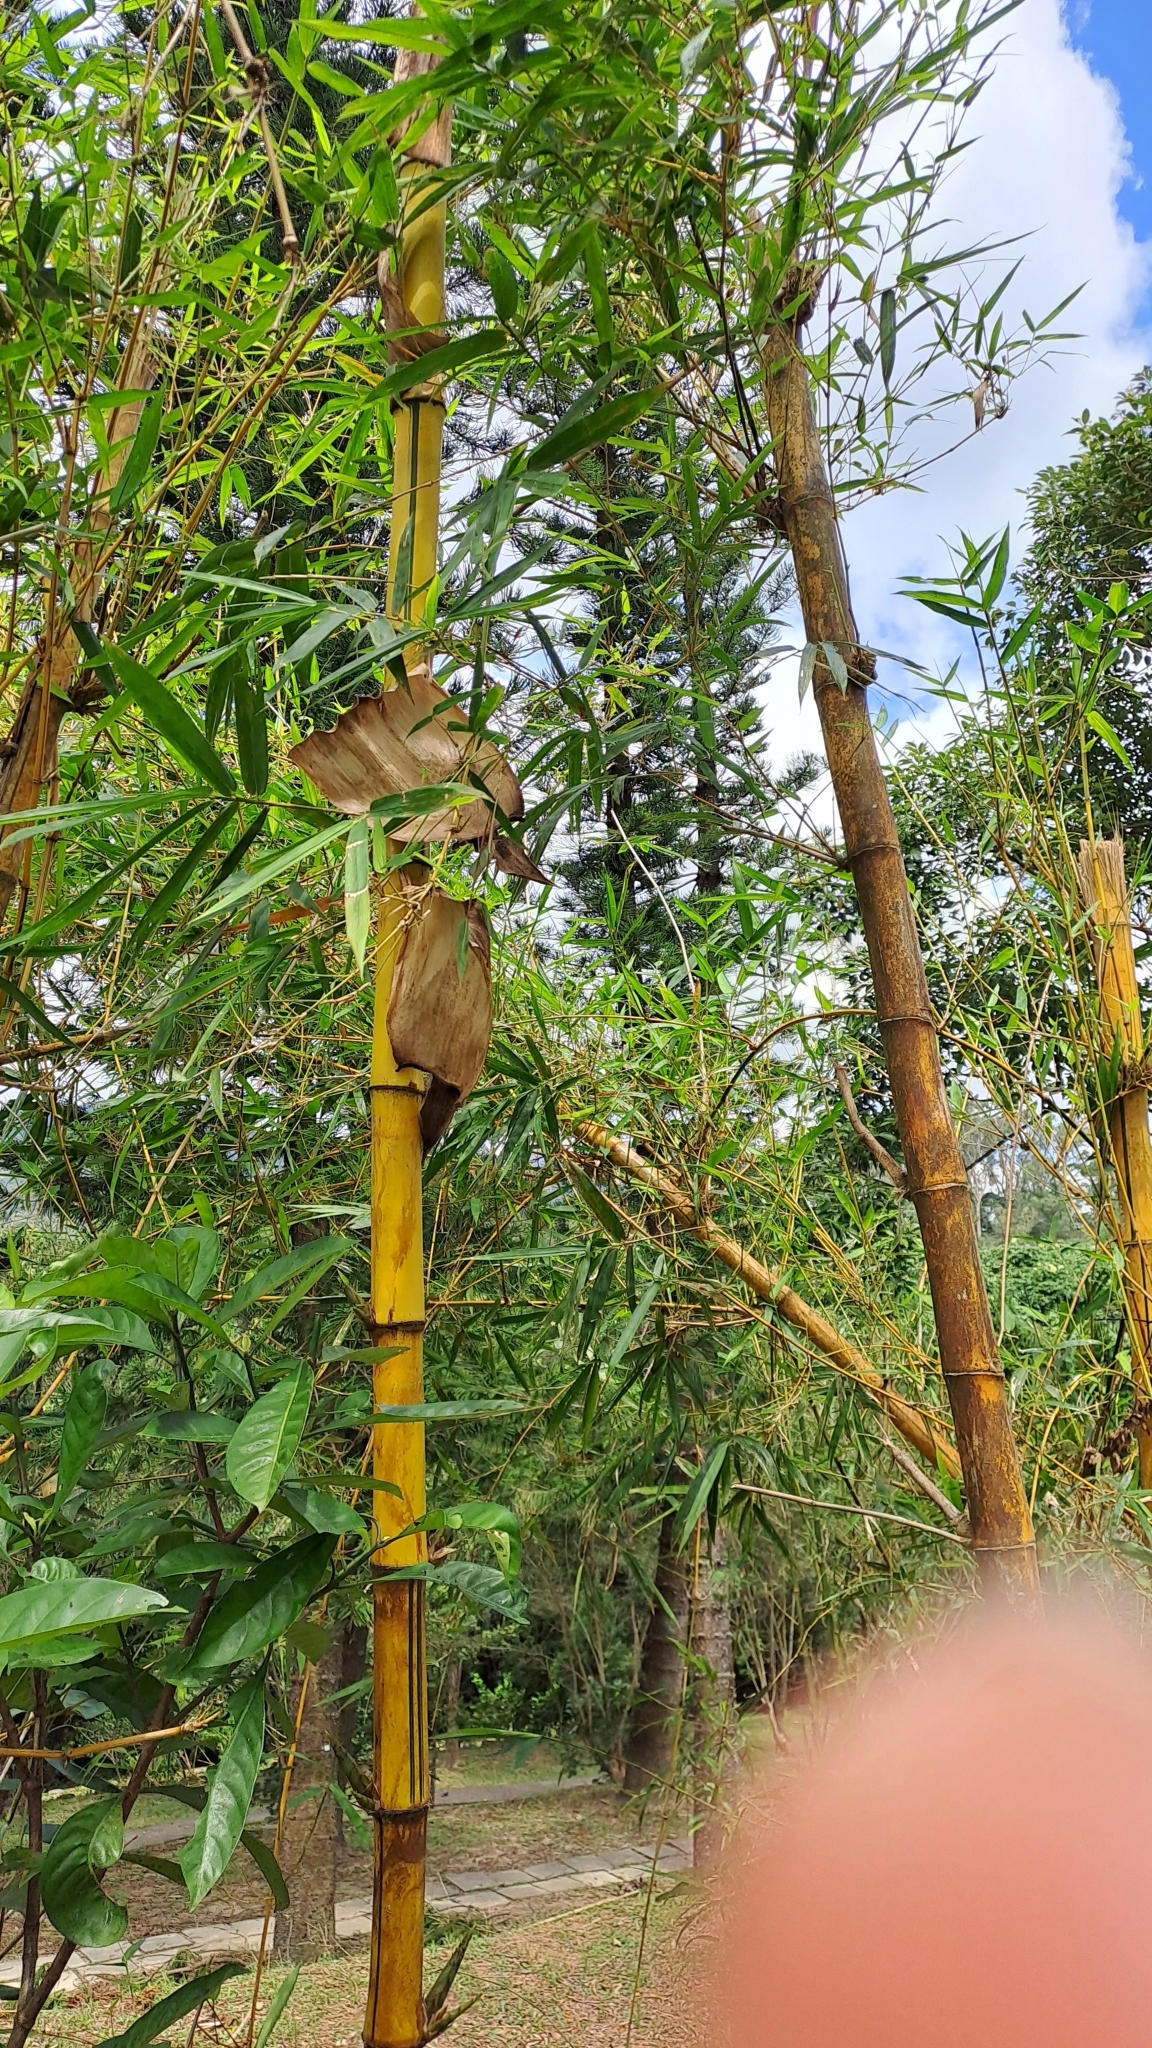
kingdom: Plantae
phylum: Tracheophyta
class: Liliopsida
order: Poales
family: Poaceae
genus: Bambusa
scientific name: Bambusa vulgaris
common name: Common bamboo
